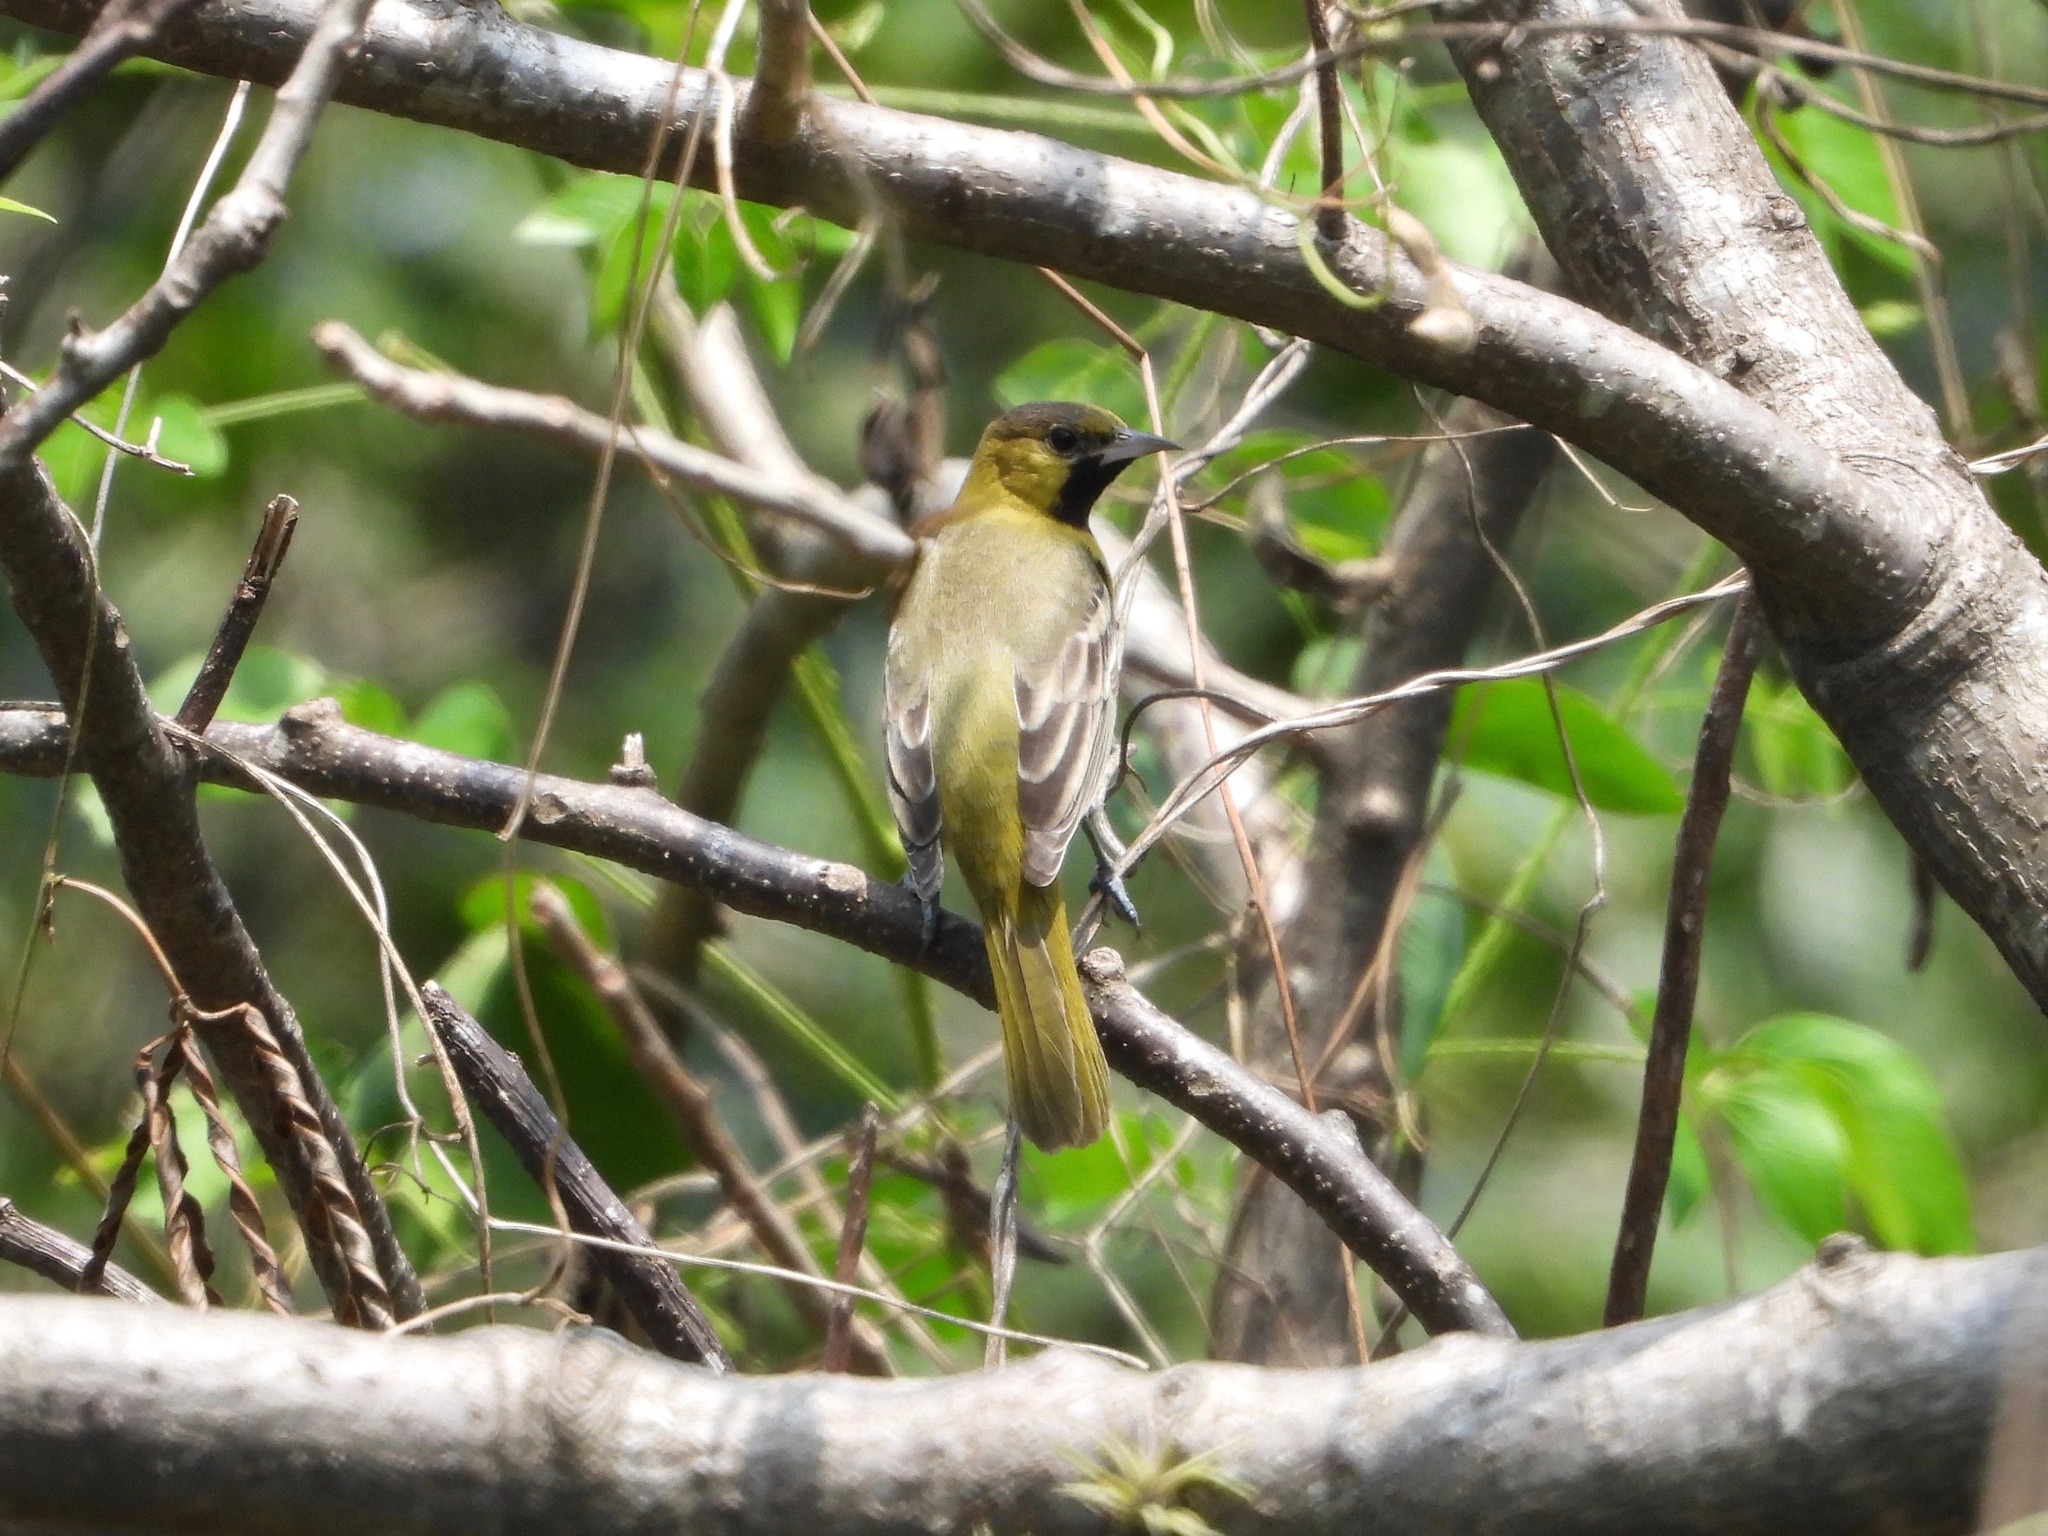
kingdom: Animalia
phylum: Chordata
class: Aves
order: Passeriformes
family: Icteridae
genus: Icterus
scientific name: Icterus spurius
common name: Orchard oriole
